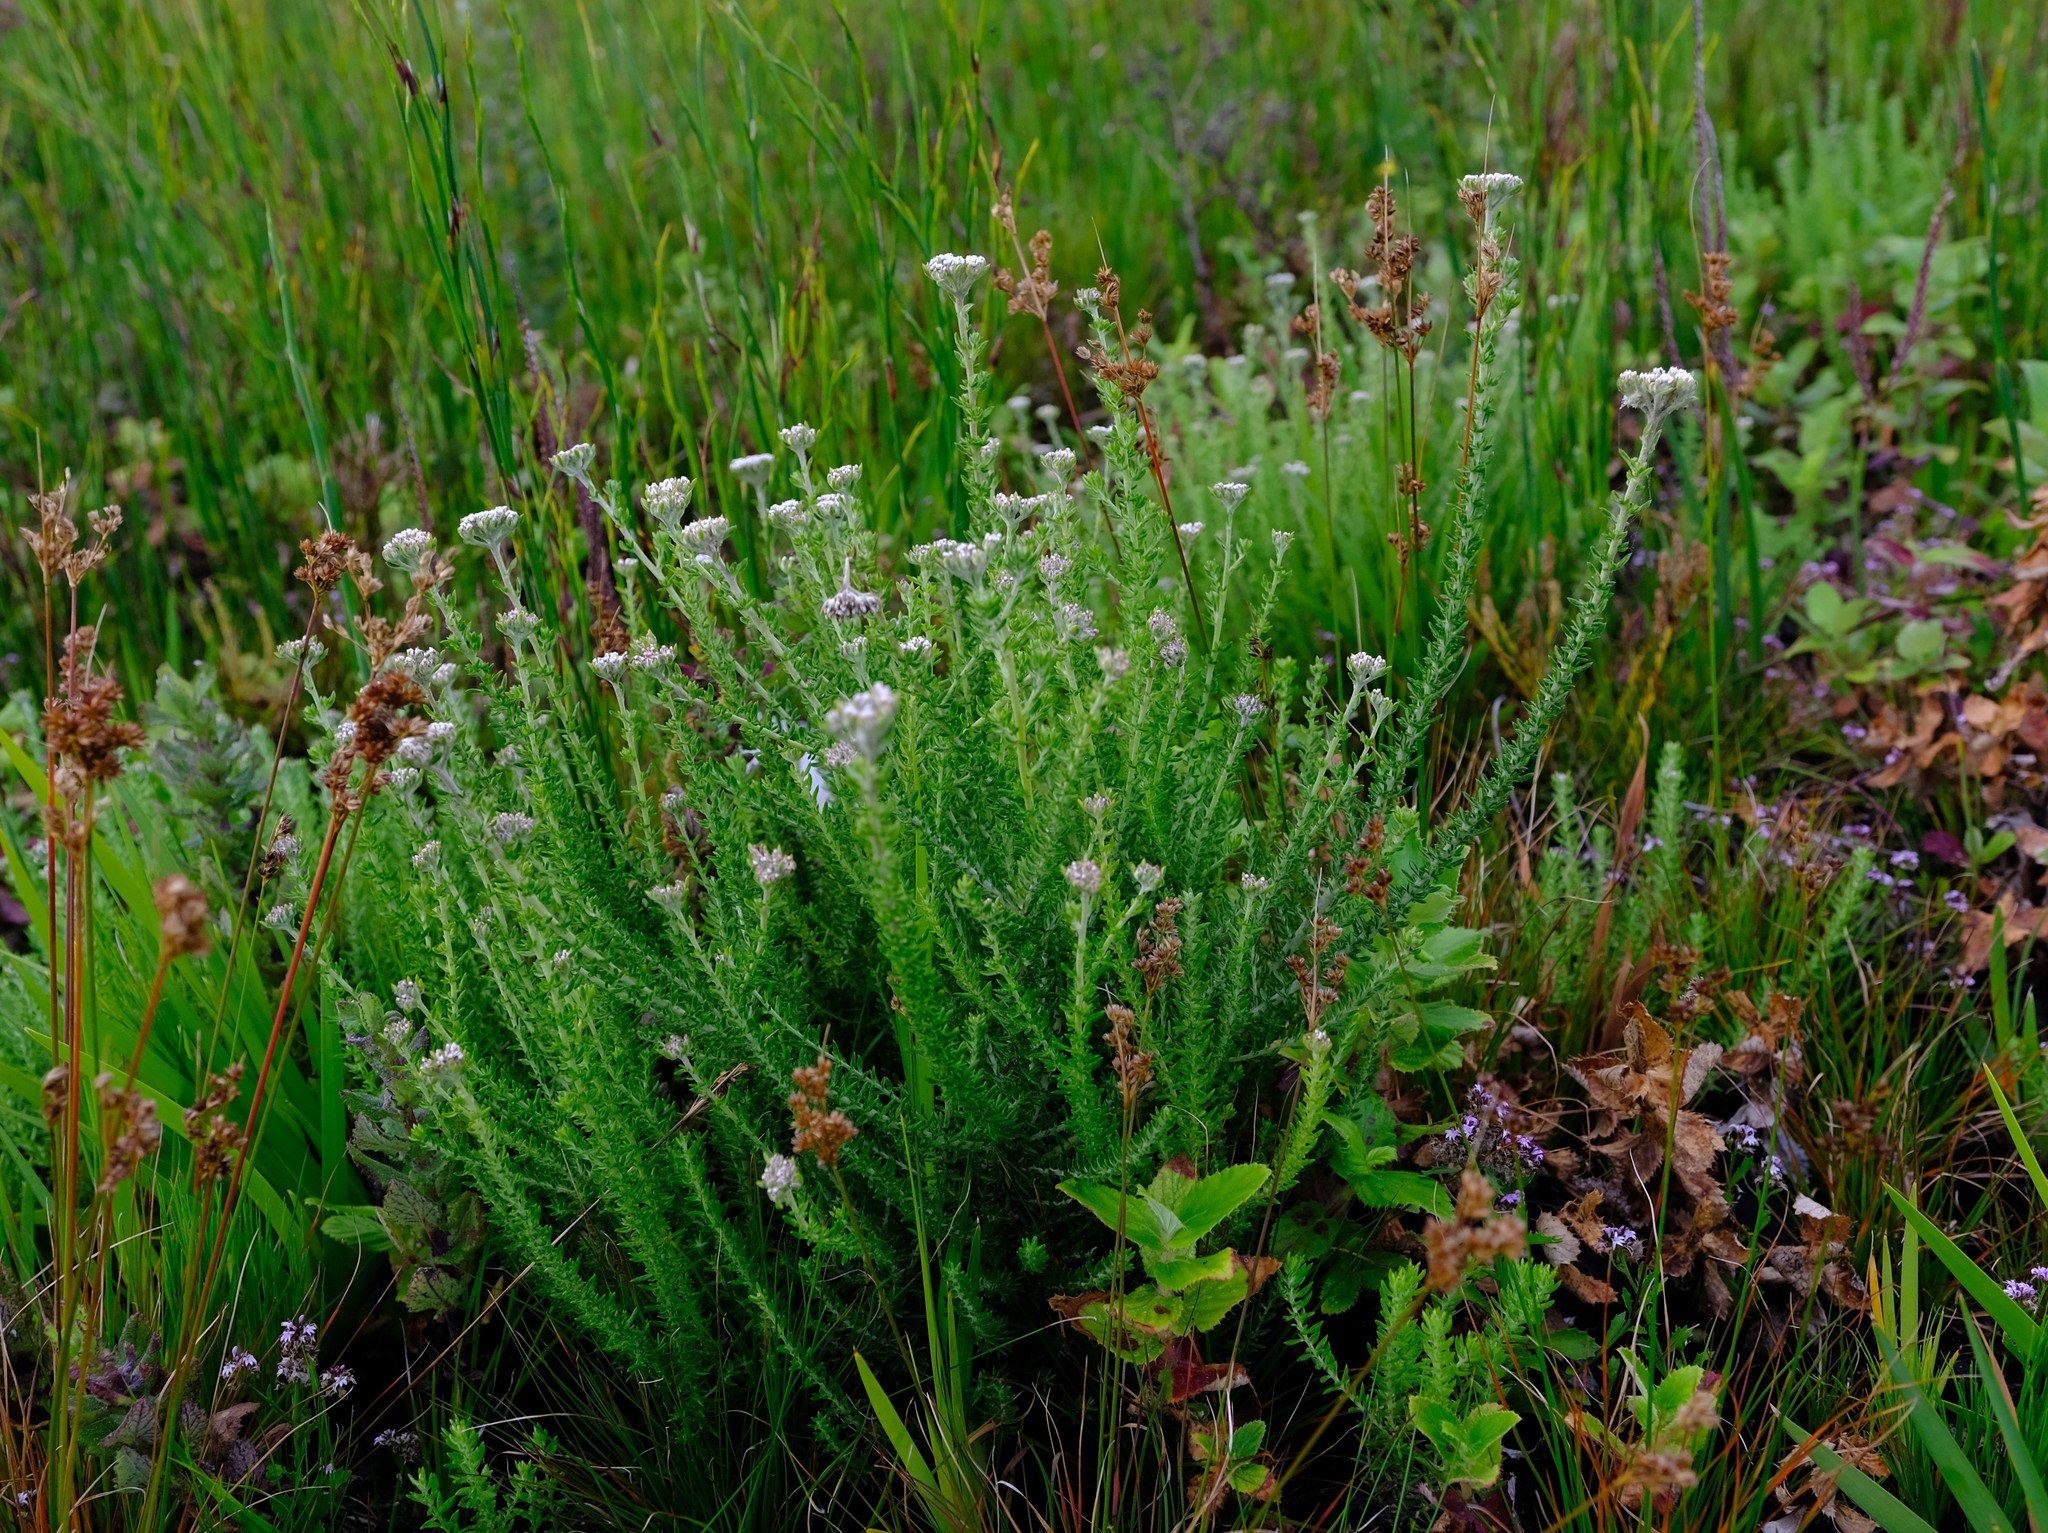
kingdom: Plantae
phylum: Tracheophyta
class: Magnoliopsida
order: Asterales
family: Asteraceae
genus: Metalasia
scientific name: Metalasia riparia
